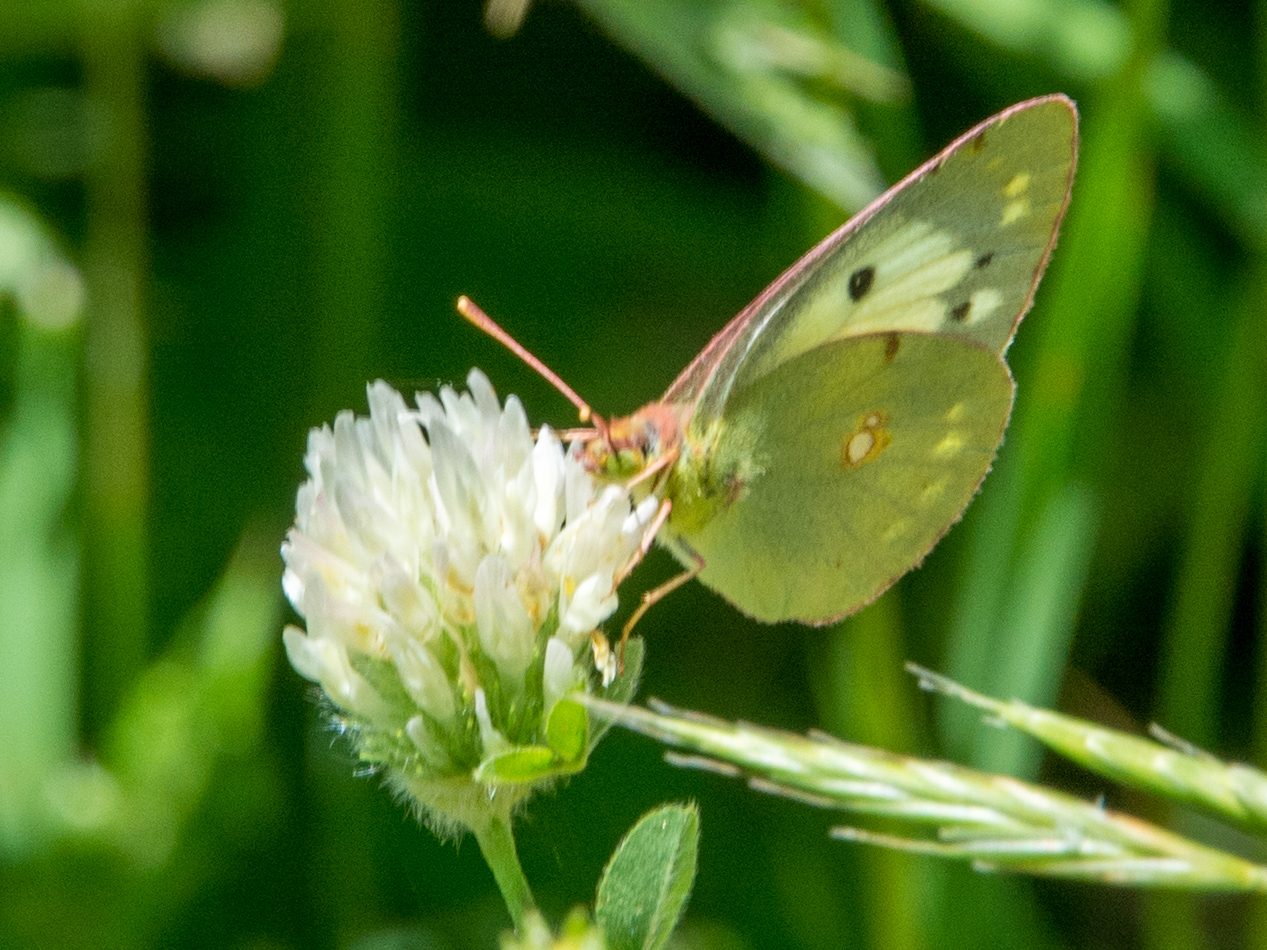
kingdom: Animalia
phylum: Arthropoda
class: Insecta
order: Lepidoptera
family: Pieridae
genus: Colias
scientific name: Colias croceus
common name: Clouded yellow
